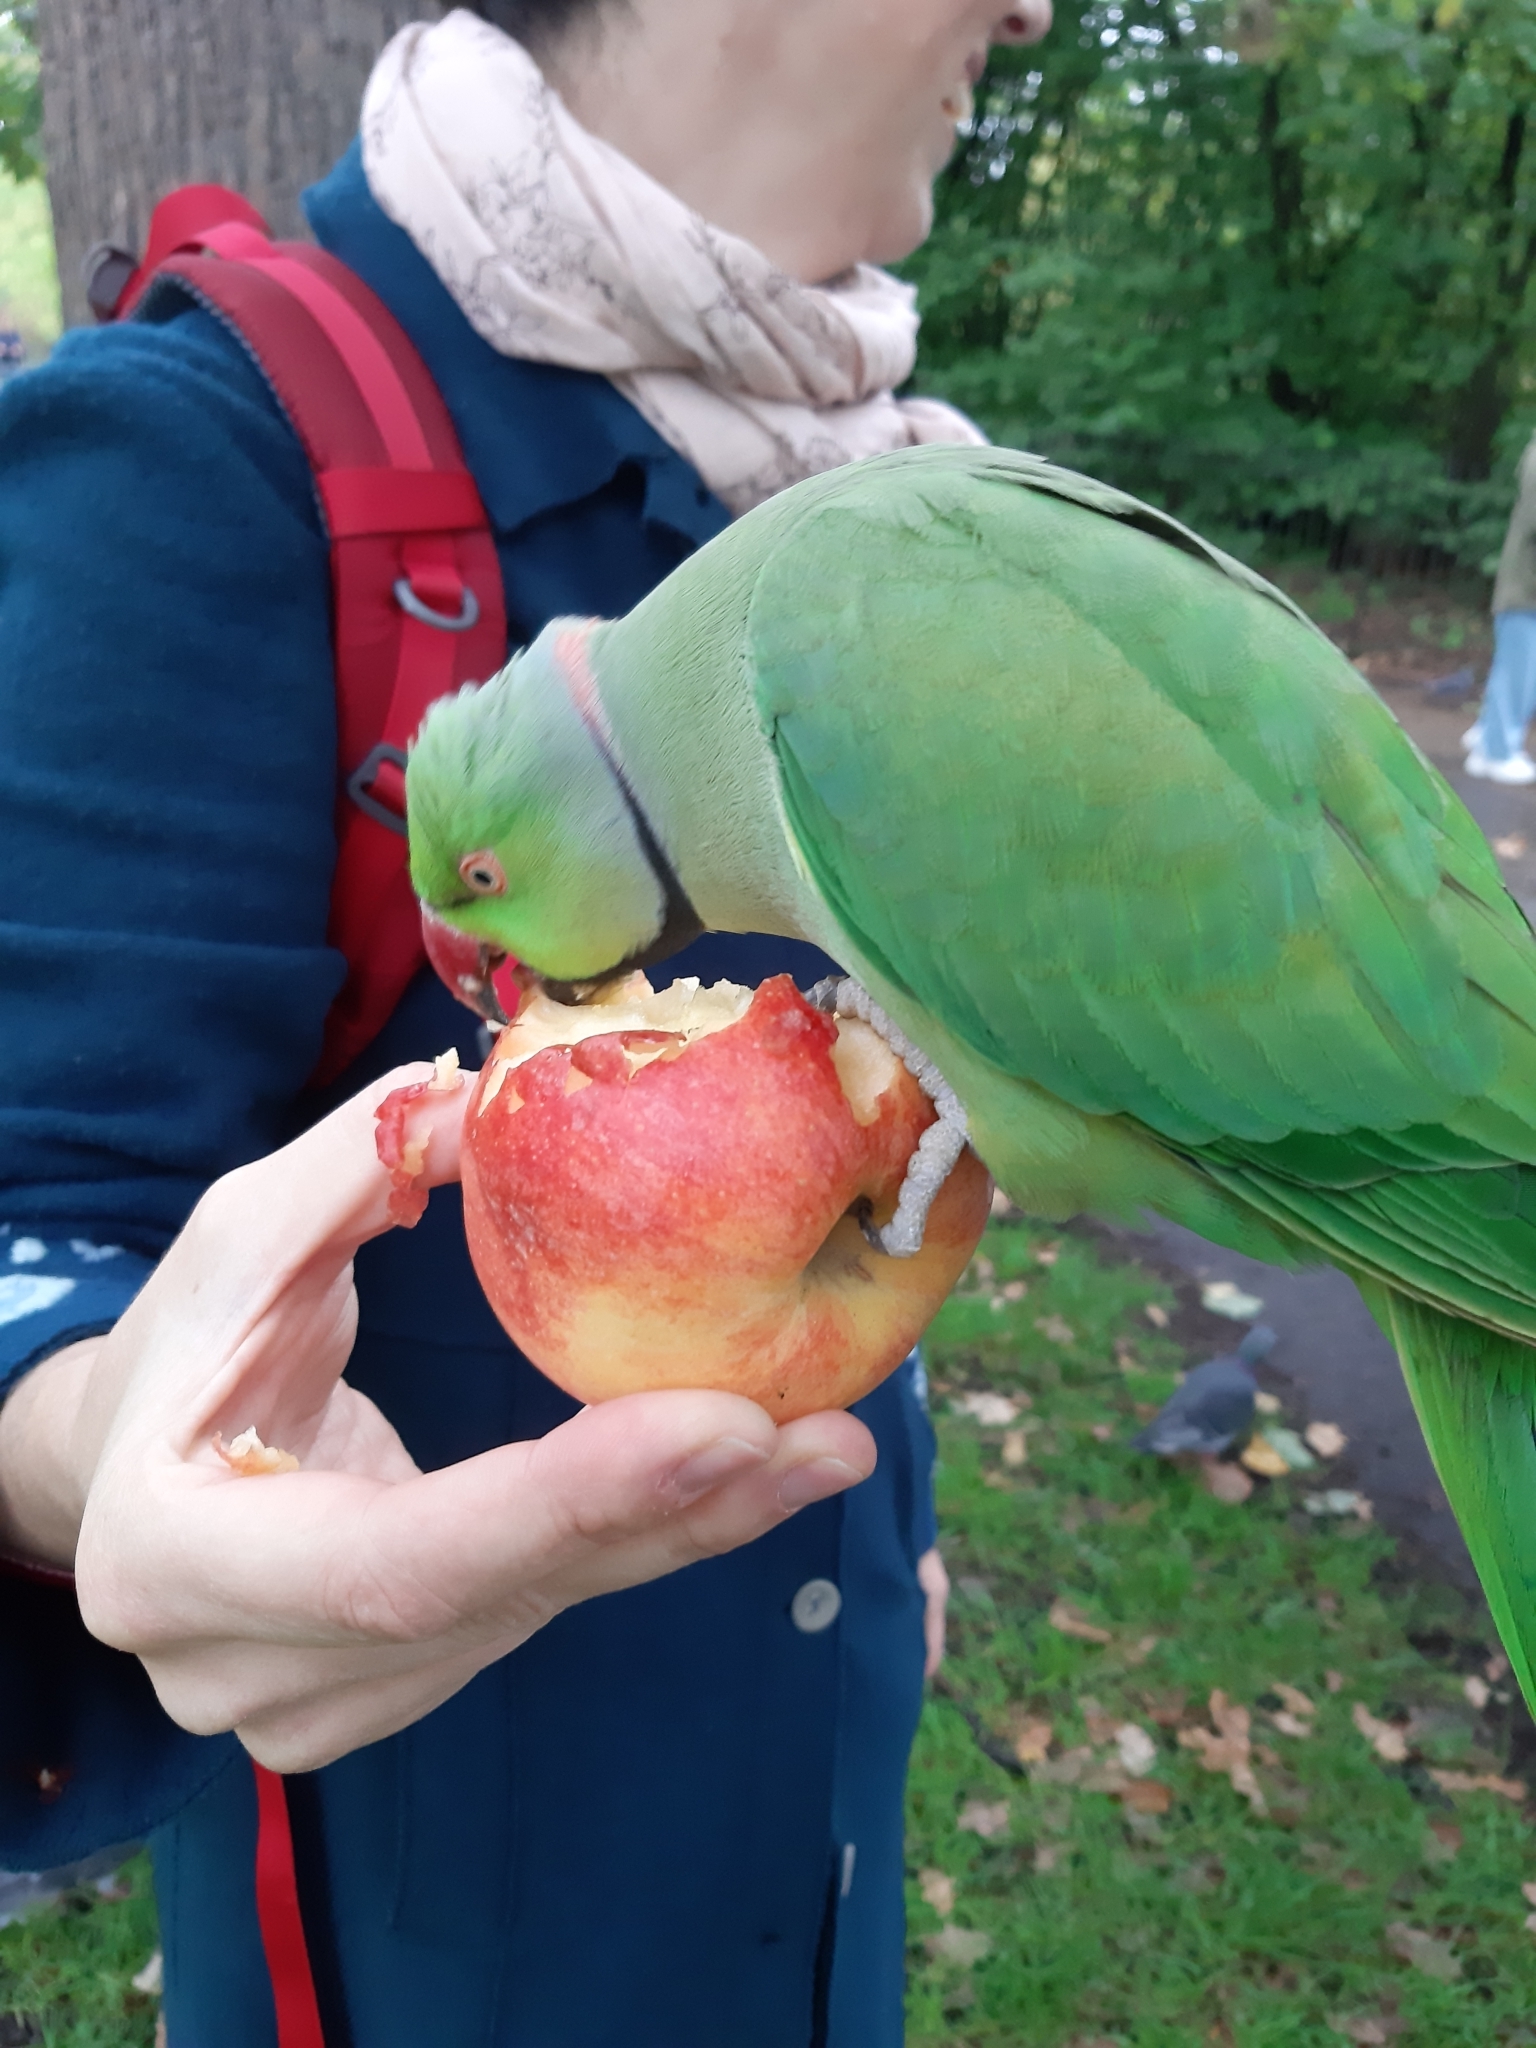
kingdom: Animalia
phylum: Chordata
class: Aves
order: Psittaciformes
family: Psittacidae
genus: Psittacula
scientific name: Psittacula krameri
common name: Rose-ringed parakeet
